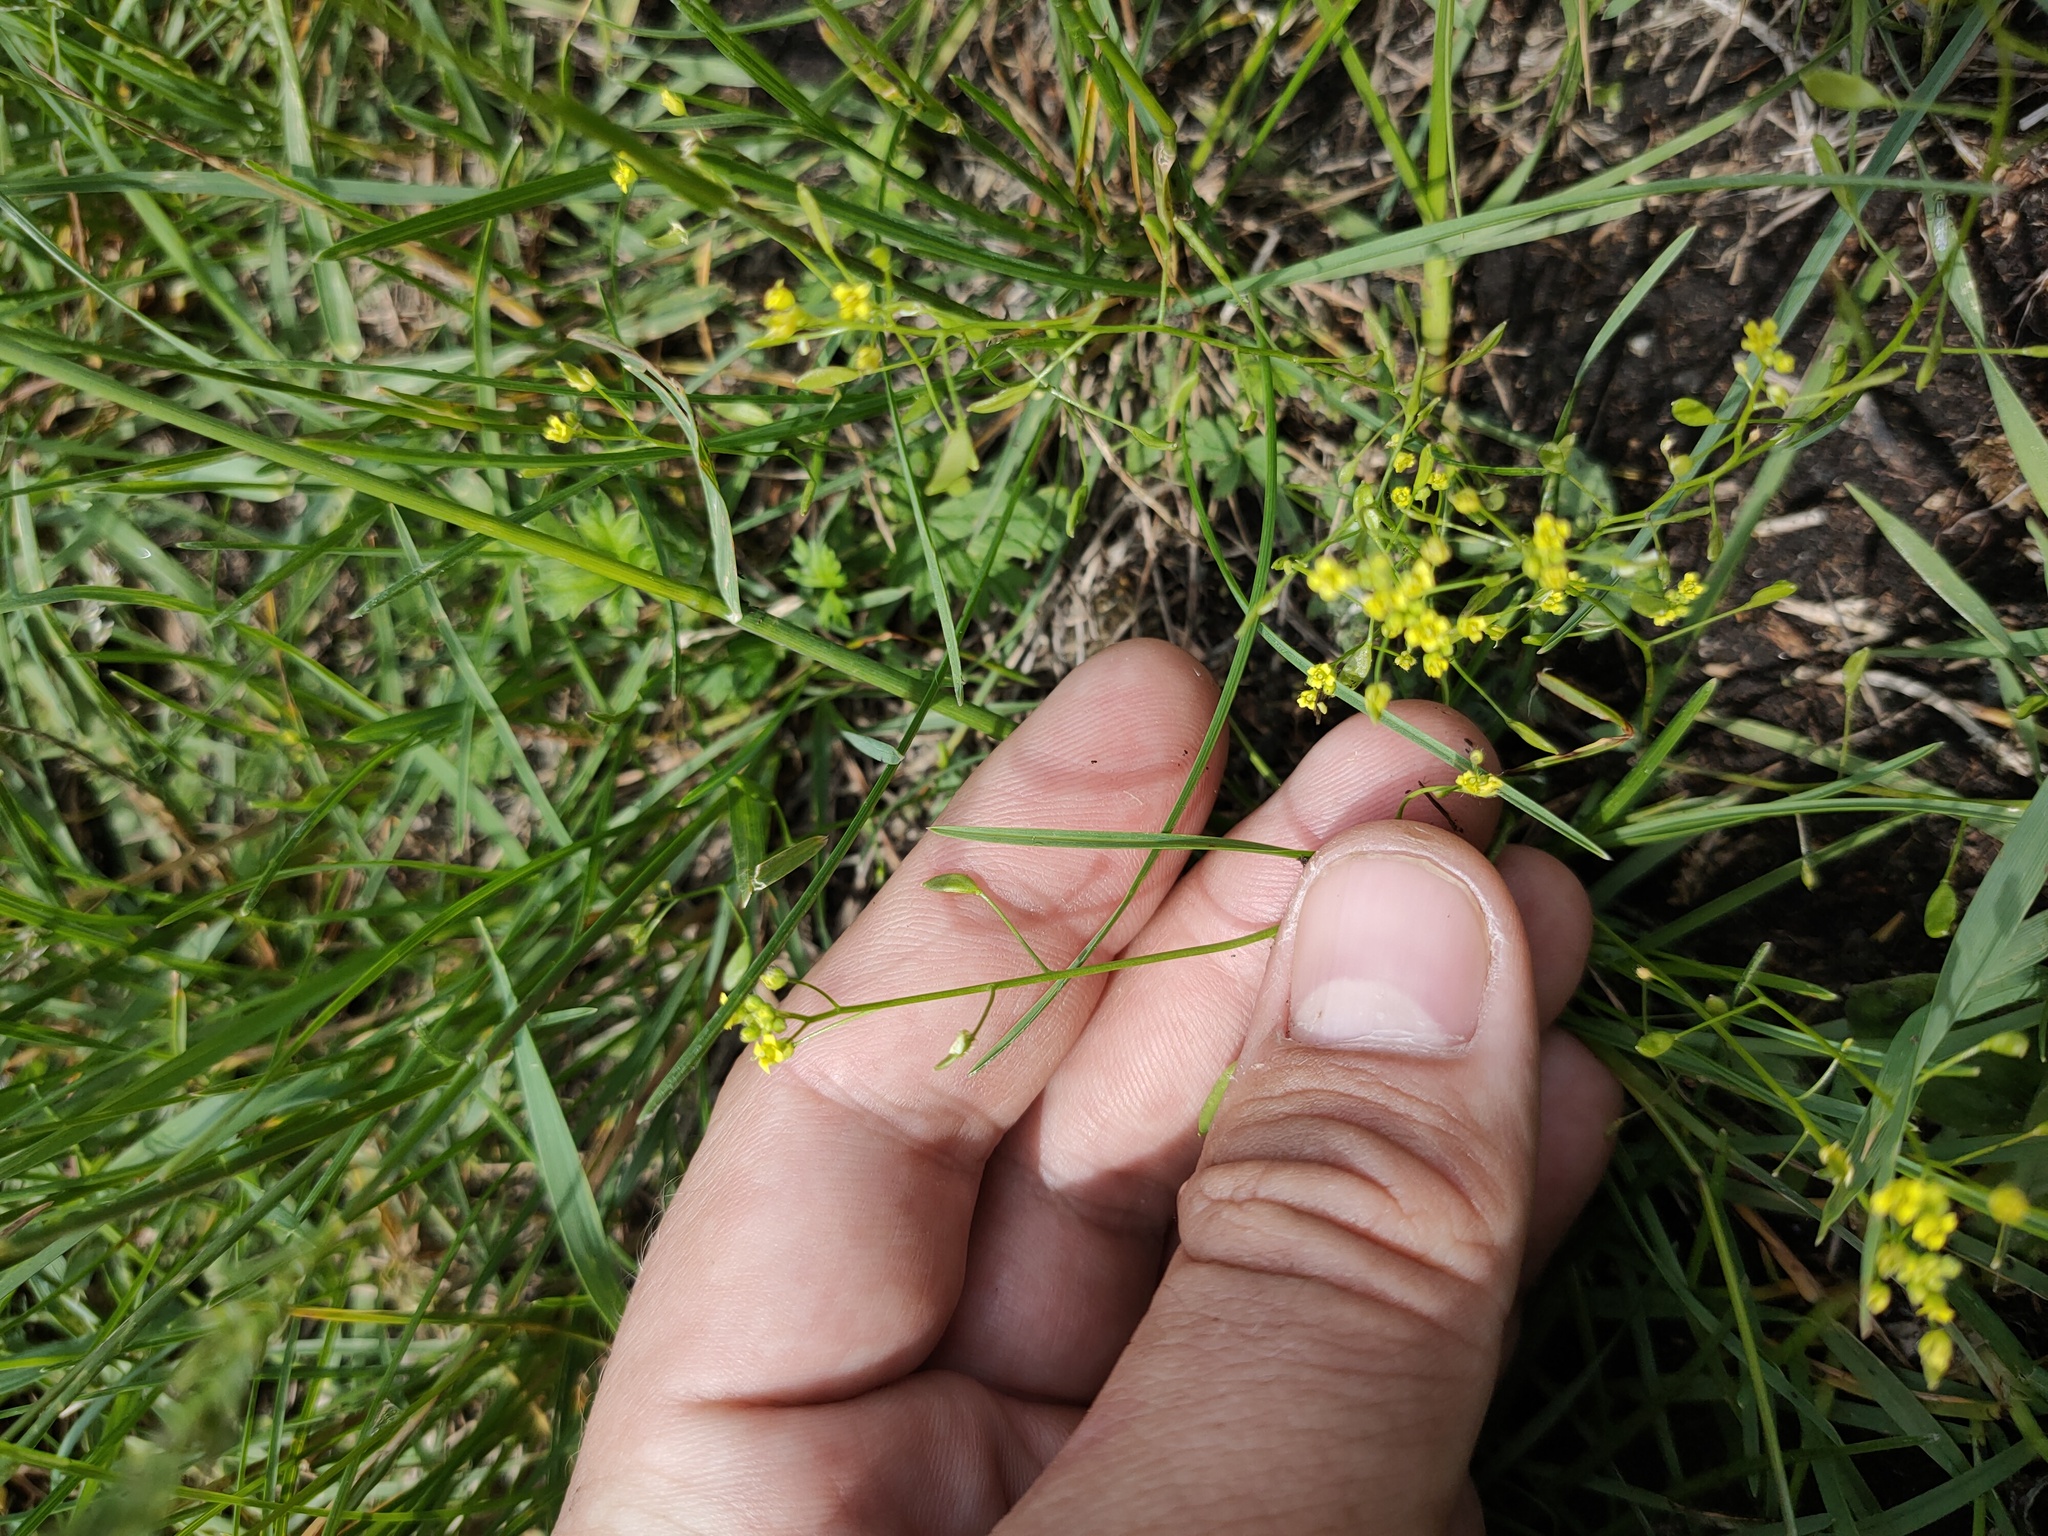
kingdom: Plantae
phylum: Tracheophyta
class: Magnoliopsida
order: Brassicales
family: Brassicaceae
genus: Draba
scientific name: Draba nemorosa
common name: Wood whitlow-grass
